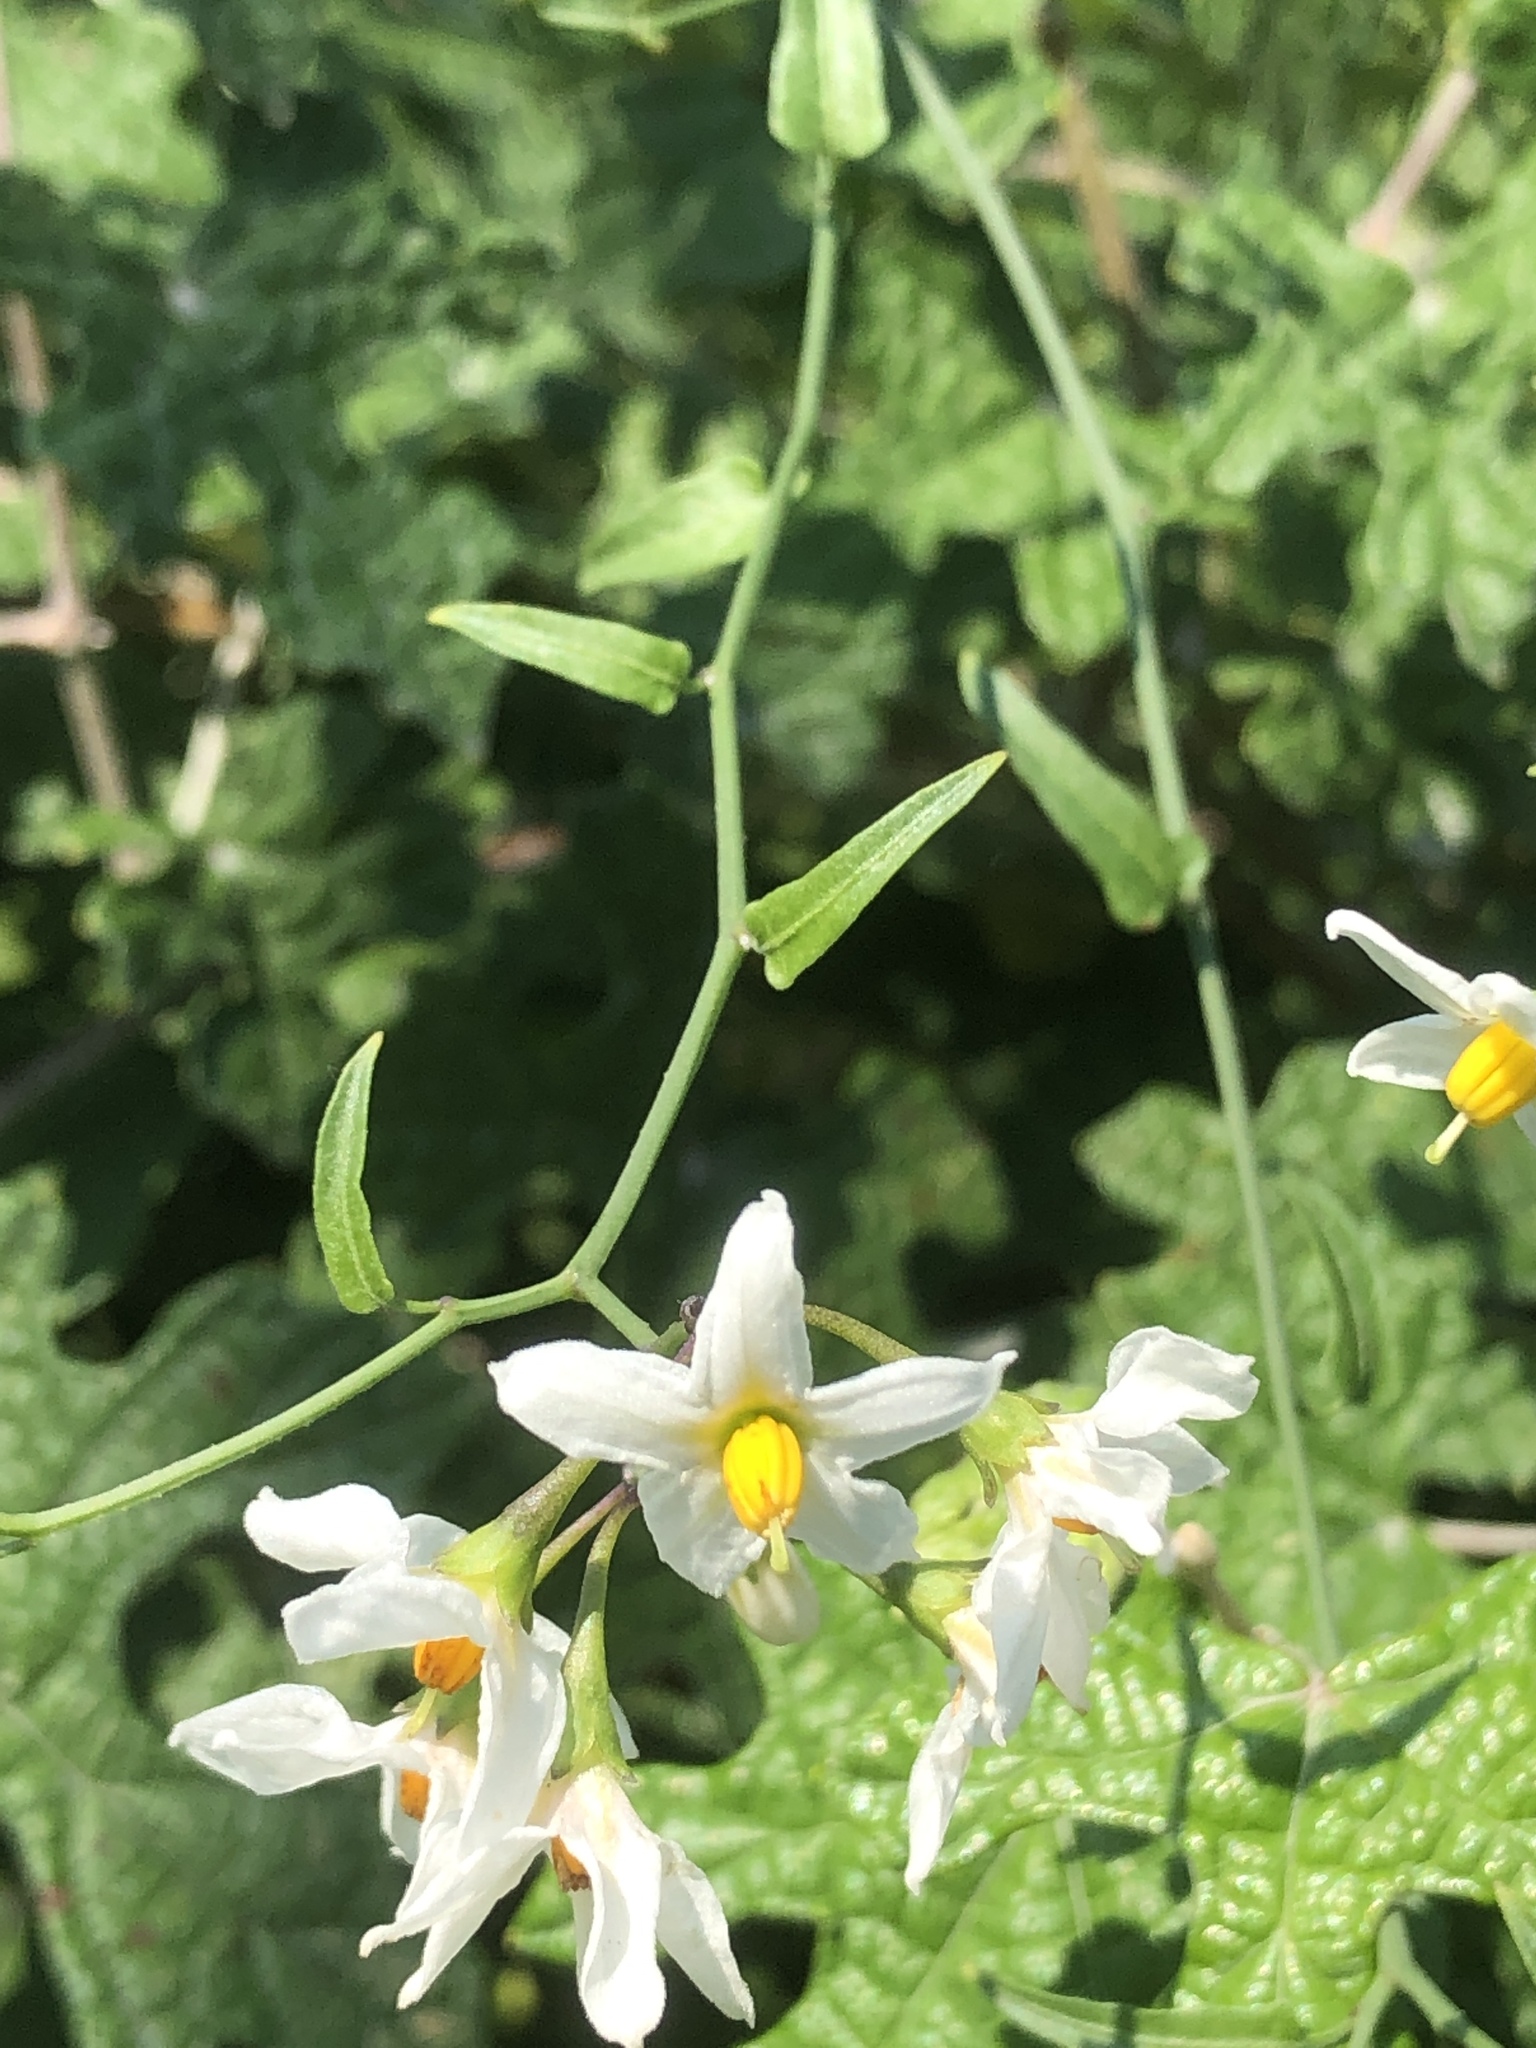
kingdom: Plantae
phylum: Tracheophyta
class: Magnoliopsida
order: Solanales
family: Solanaceae
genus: Solanum
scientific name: Solanum triquetrum
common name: Texas nightshade
